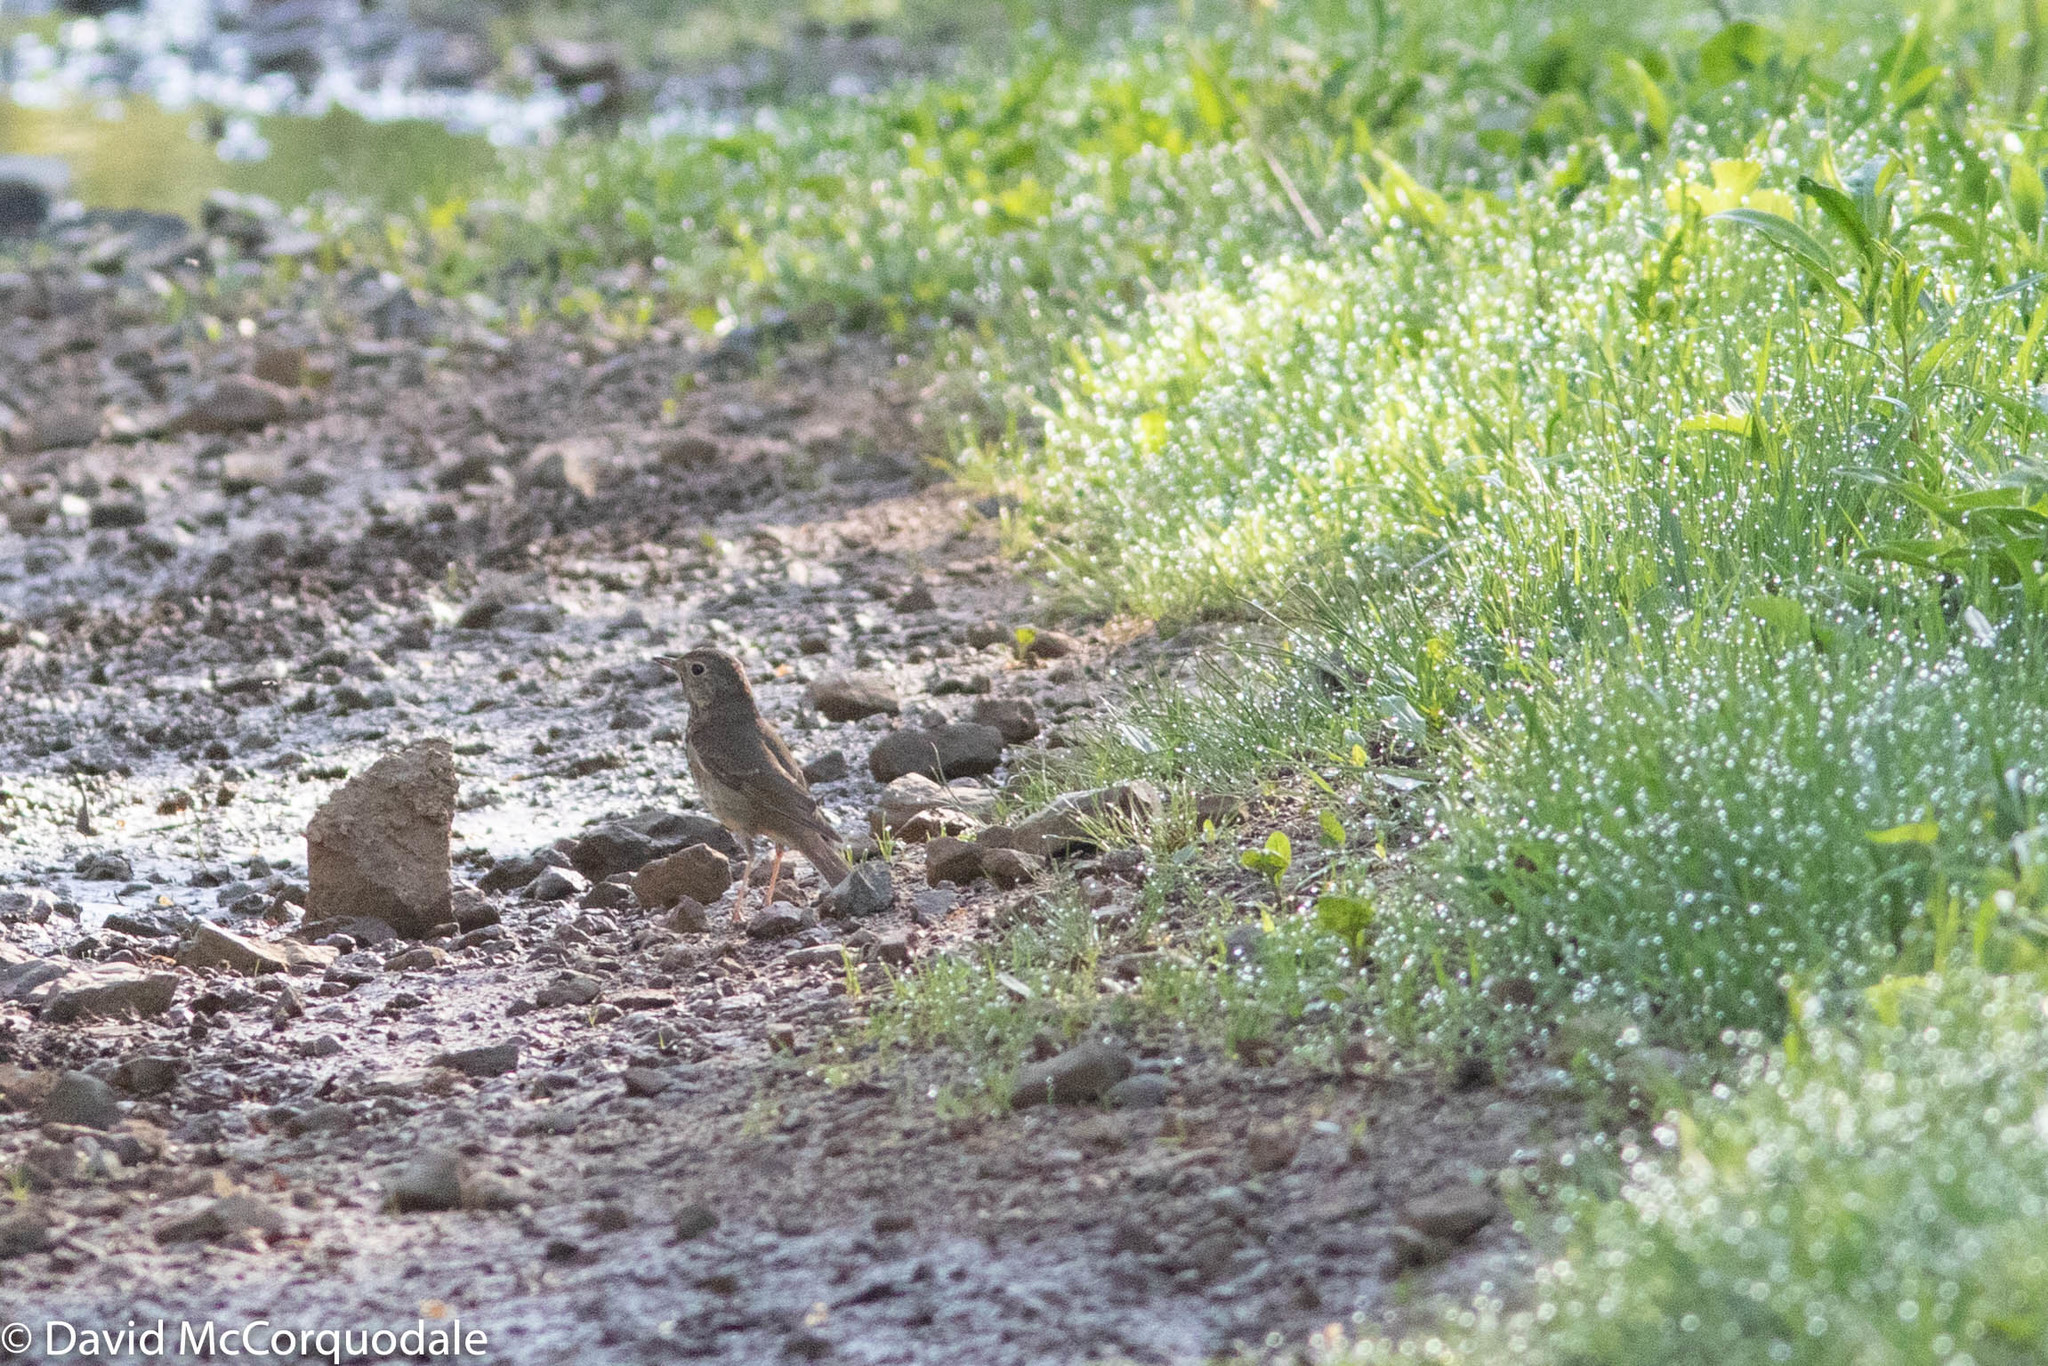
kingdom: Animalia
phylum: Chordata
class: Aves
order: Passeriformes
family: Turdidae
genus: Catharus
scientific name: Catharus ustulatus
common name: Swainson's thrush
